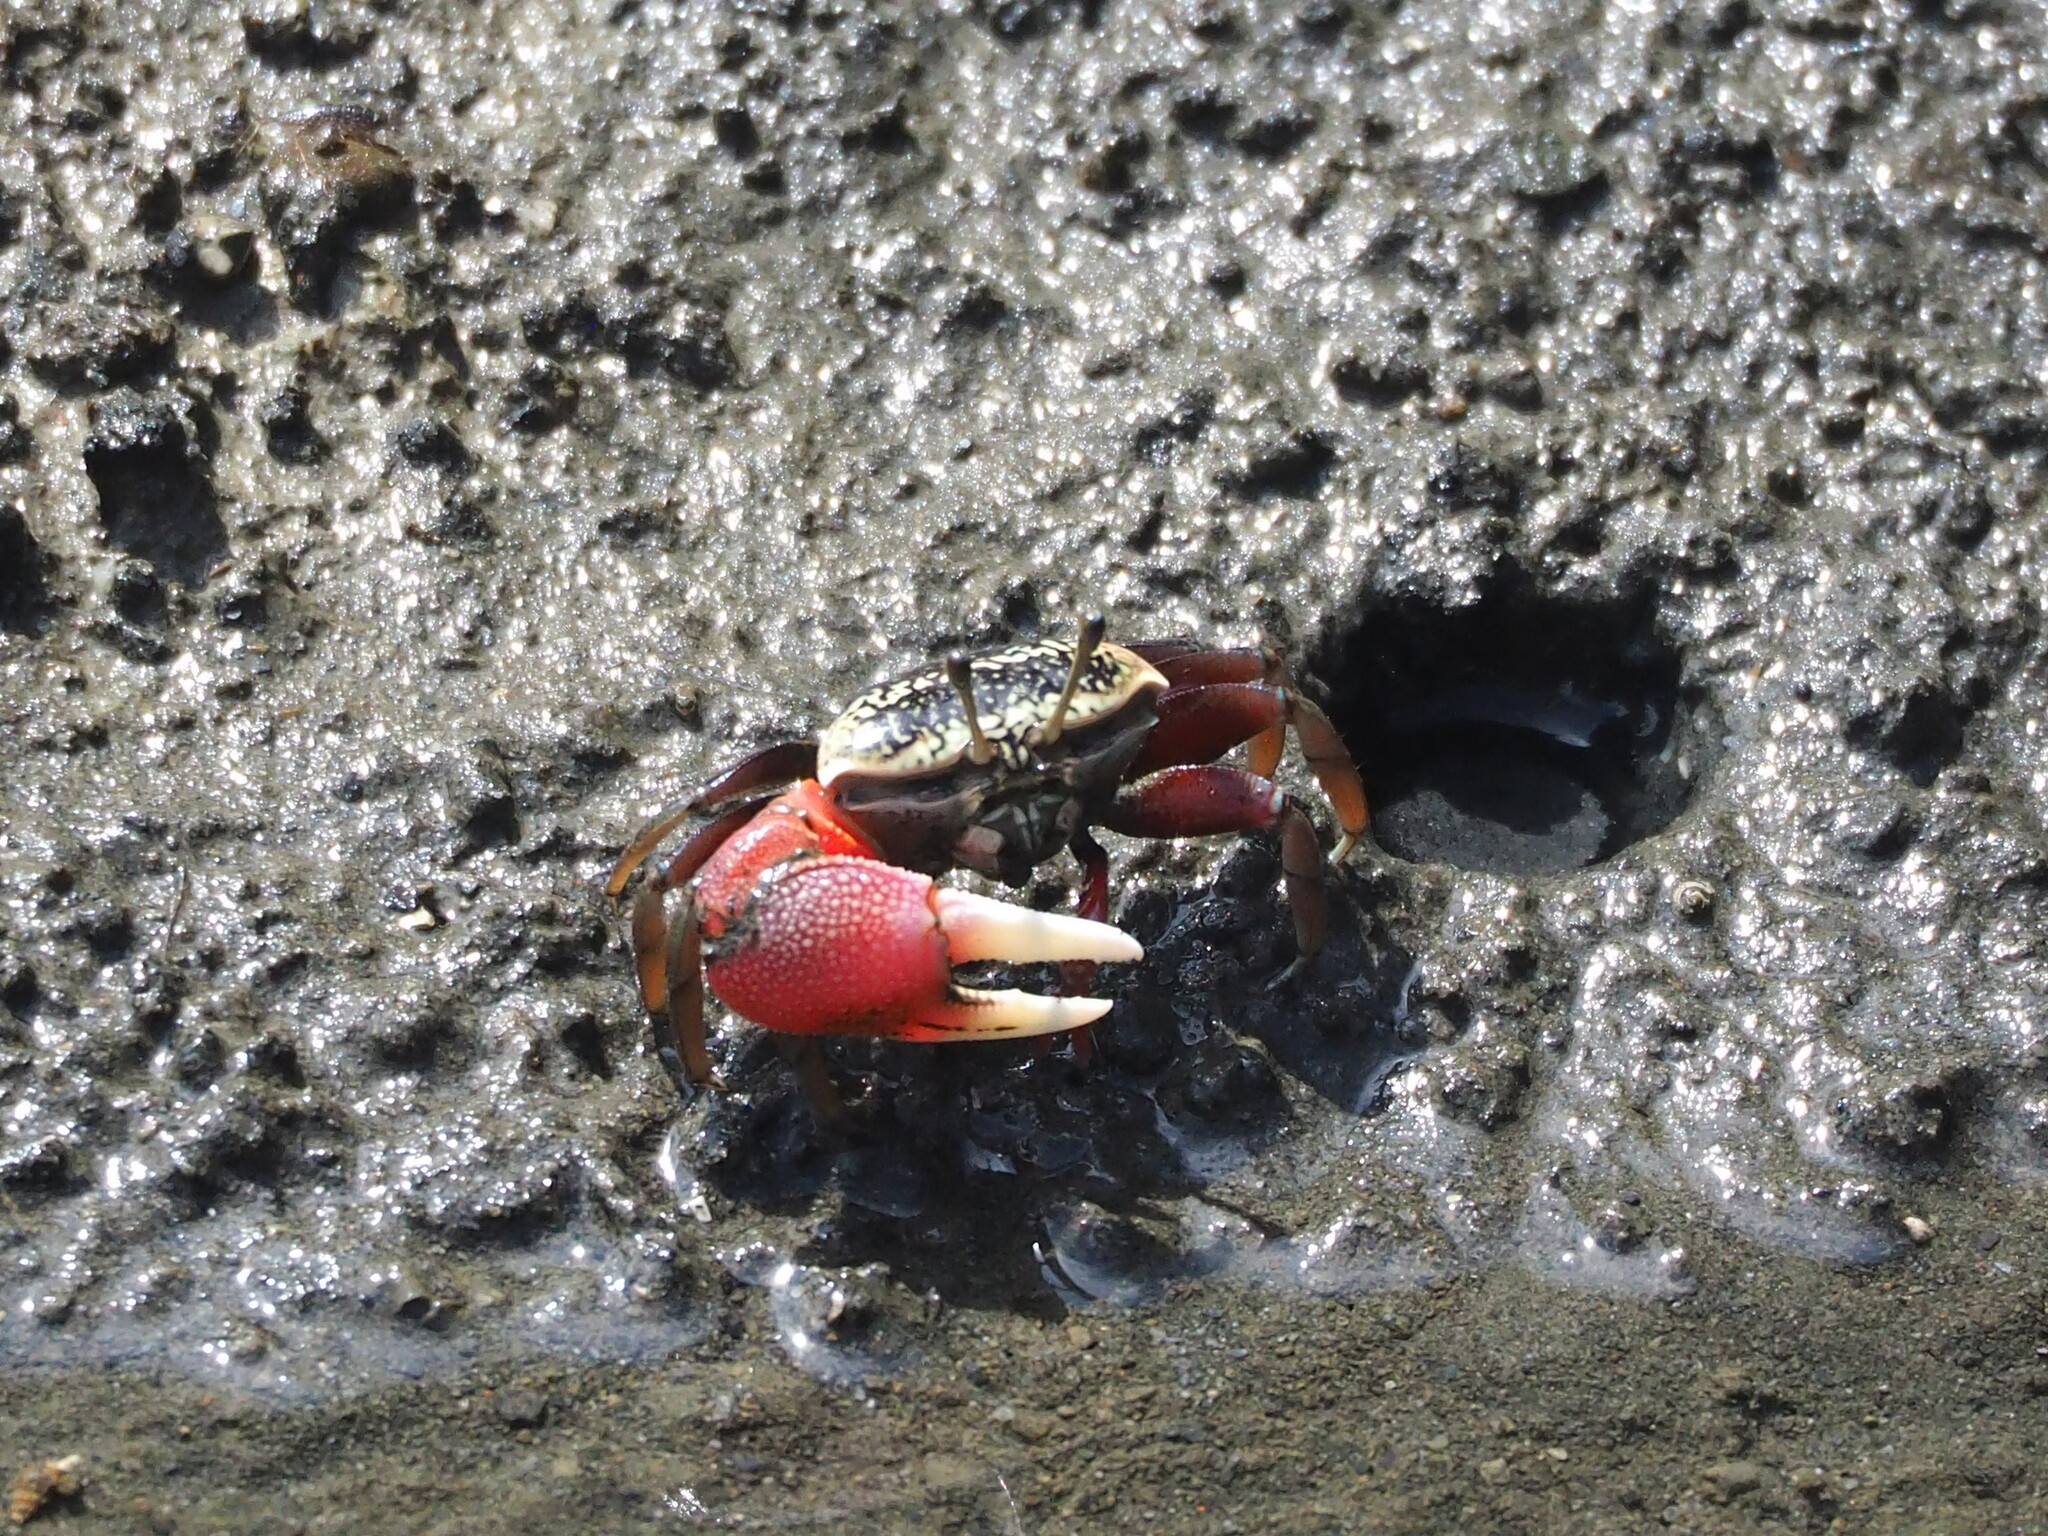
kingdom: Animalia
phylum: Arthropoda
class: Malacostraca
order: Decapoda
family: Ocypodidae
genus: Tubuca
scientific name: Tubuca arcuata
